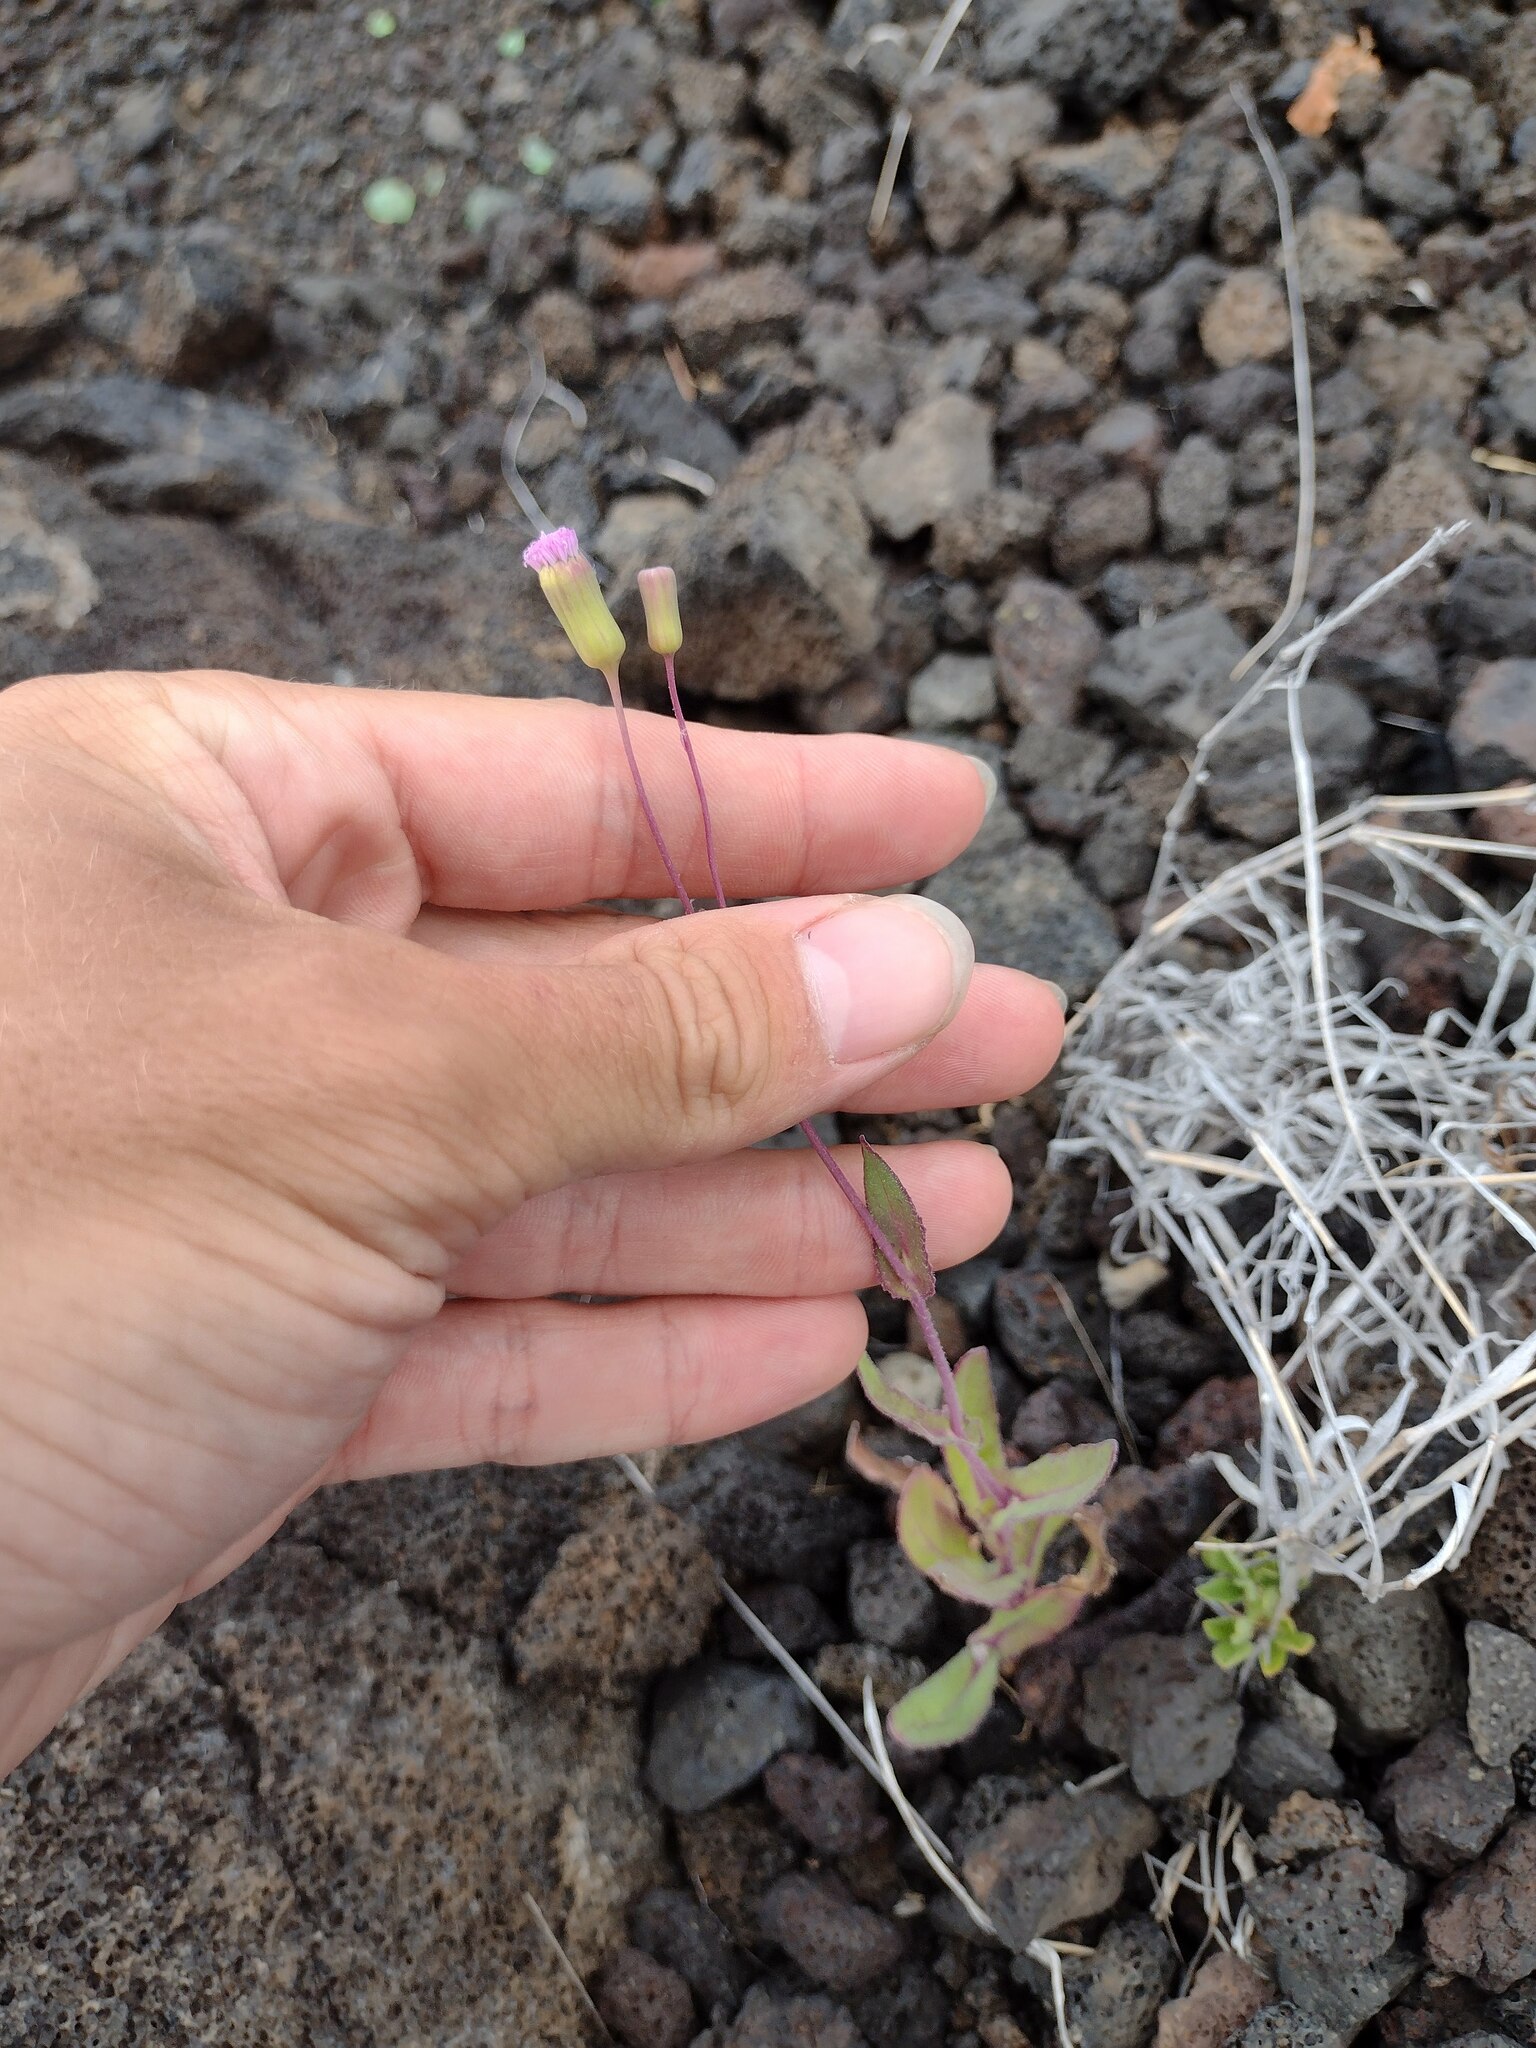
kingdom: Plantae
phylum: Tracheophyta
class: Magnoliopsida
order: Asterales
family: Asteraceae
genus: Emilia
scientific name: Emilia sonchifolia
